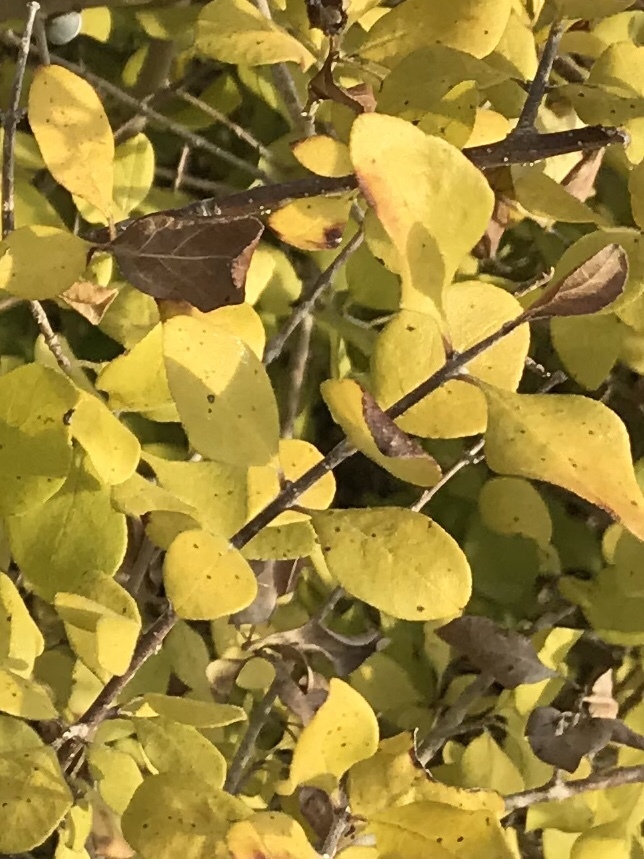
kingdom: Plantae
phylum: Tracheophyta
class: Magnoliopsida
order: Lamiales
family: Oleaceae
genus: Forestiera
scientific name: Forestiera pubescens
